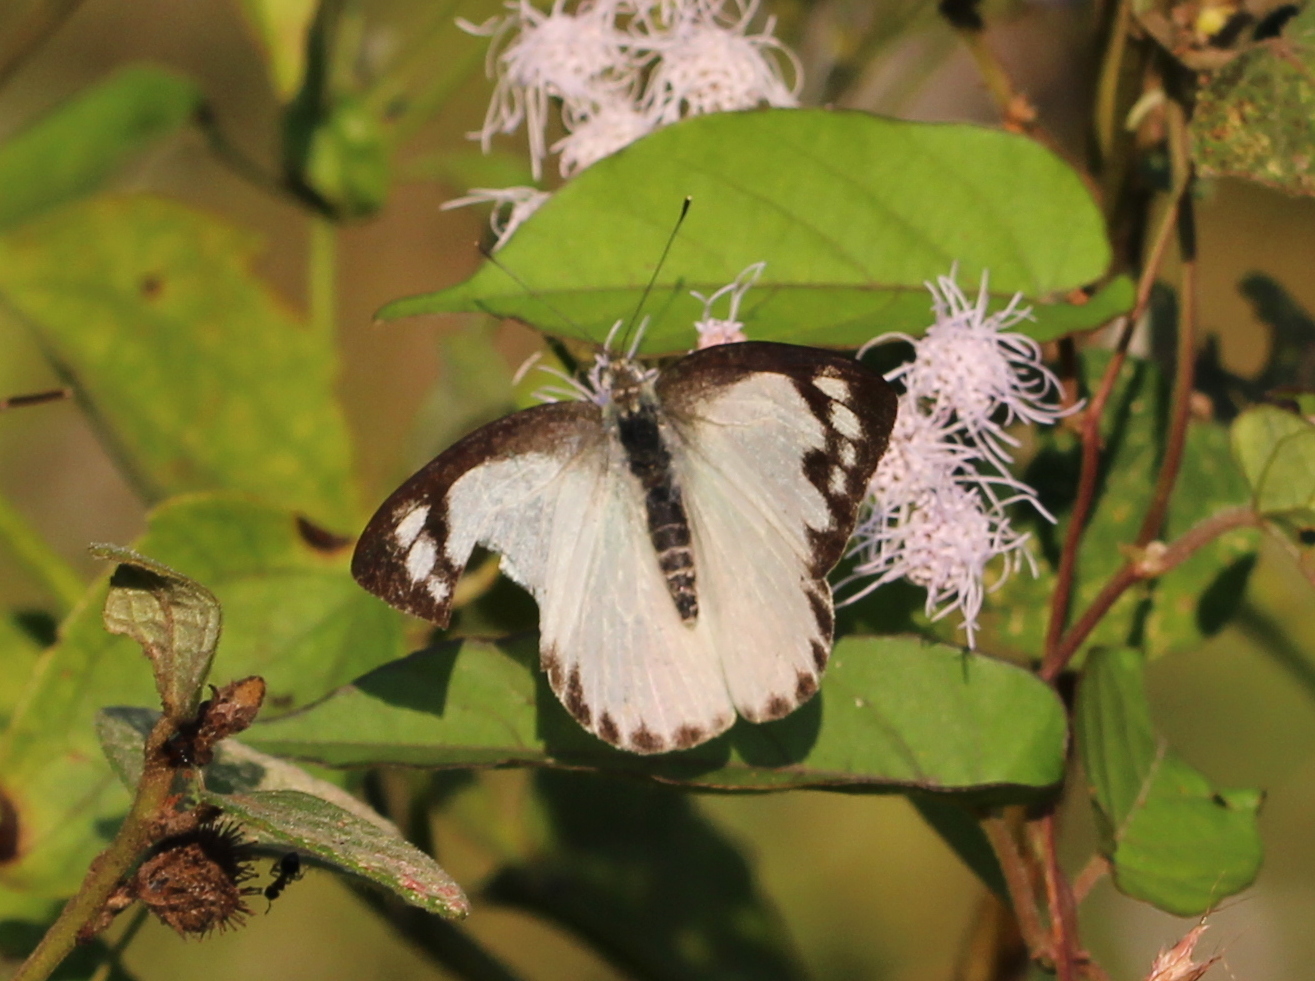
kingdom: Animalia
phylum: Arthropoda
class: Insecta
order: Lepidoptera
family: Pieridae
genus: Appias
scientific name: Appias albina
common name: Common albatross
